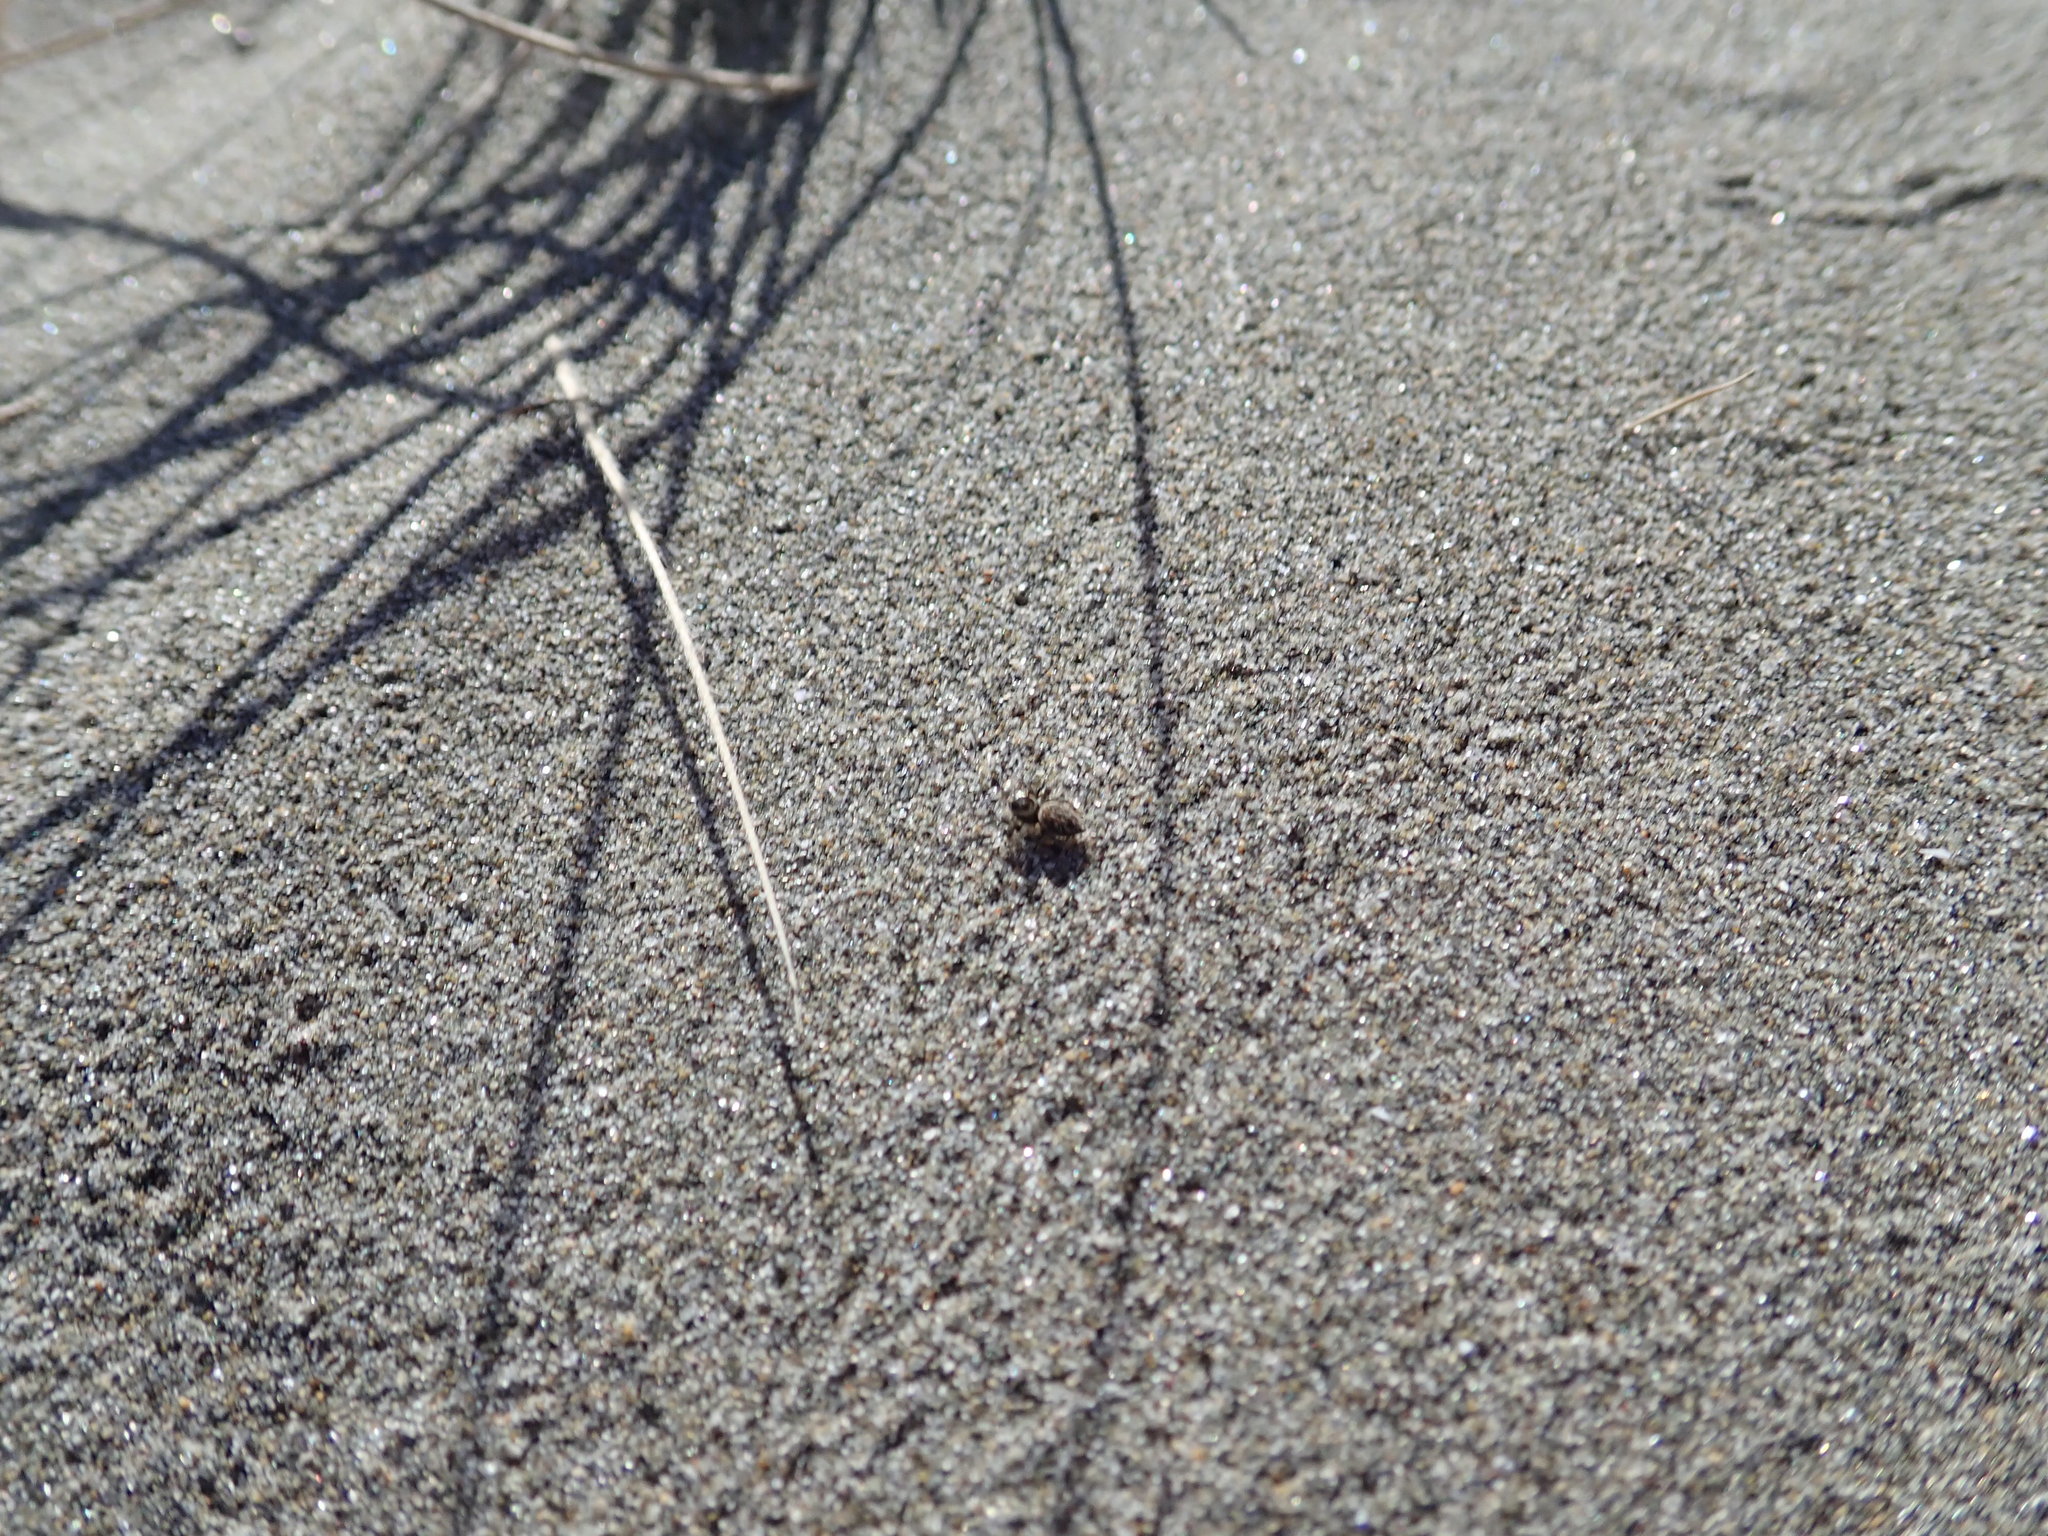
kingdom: Animalia
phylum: Arthropoda
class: Arachnida
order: Araneae
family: Salticidae
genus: Maratus
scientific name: Maratus griseus
